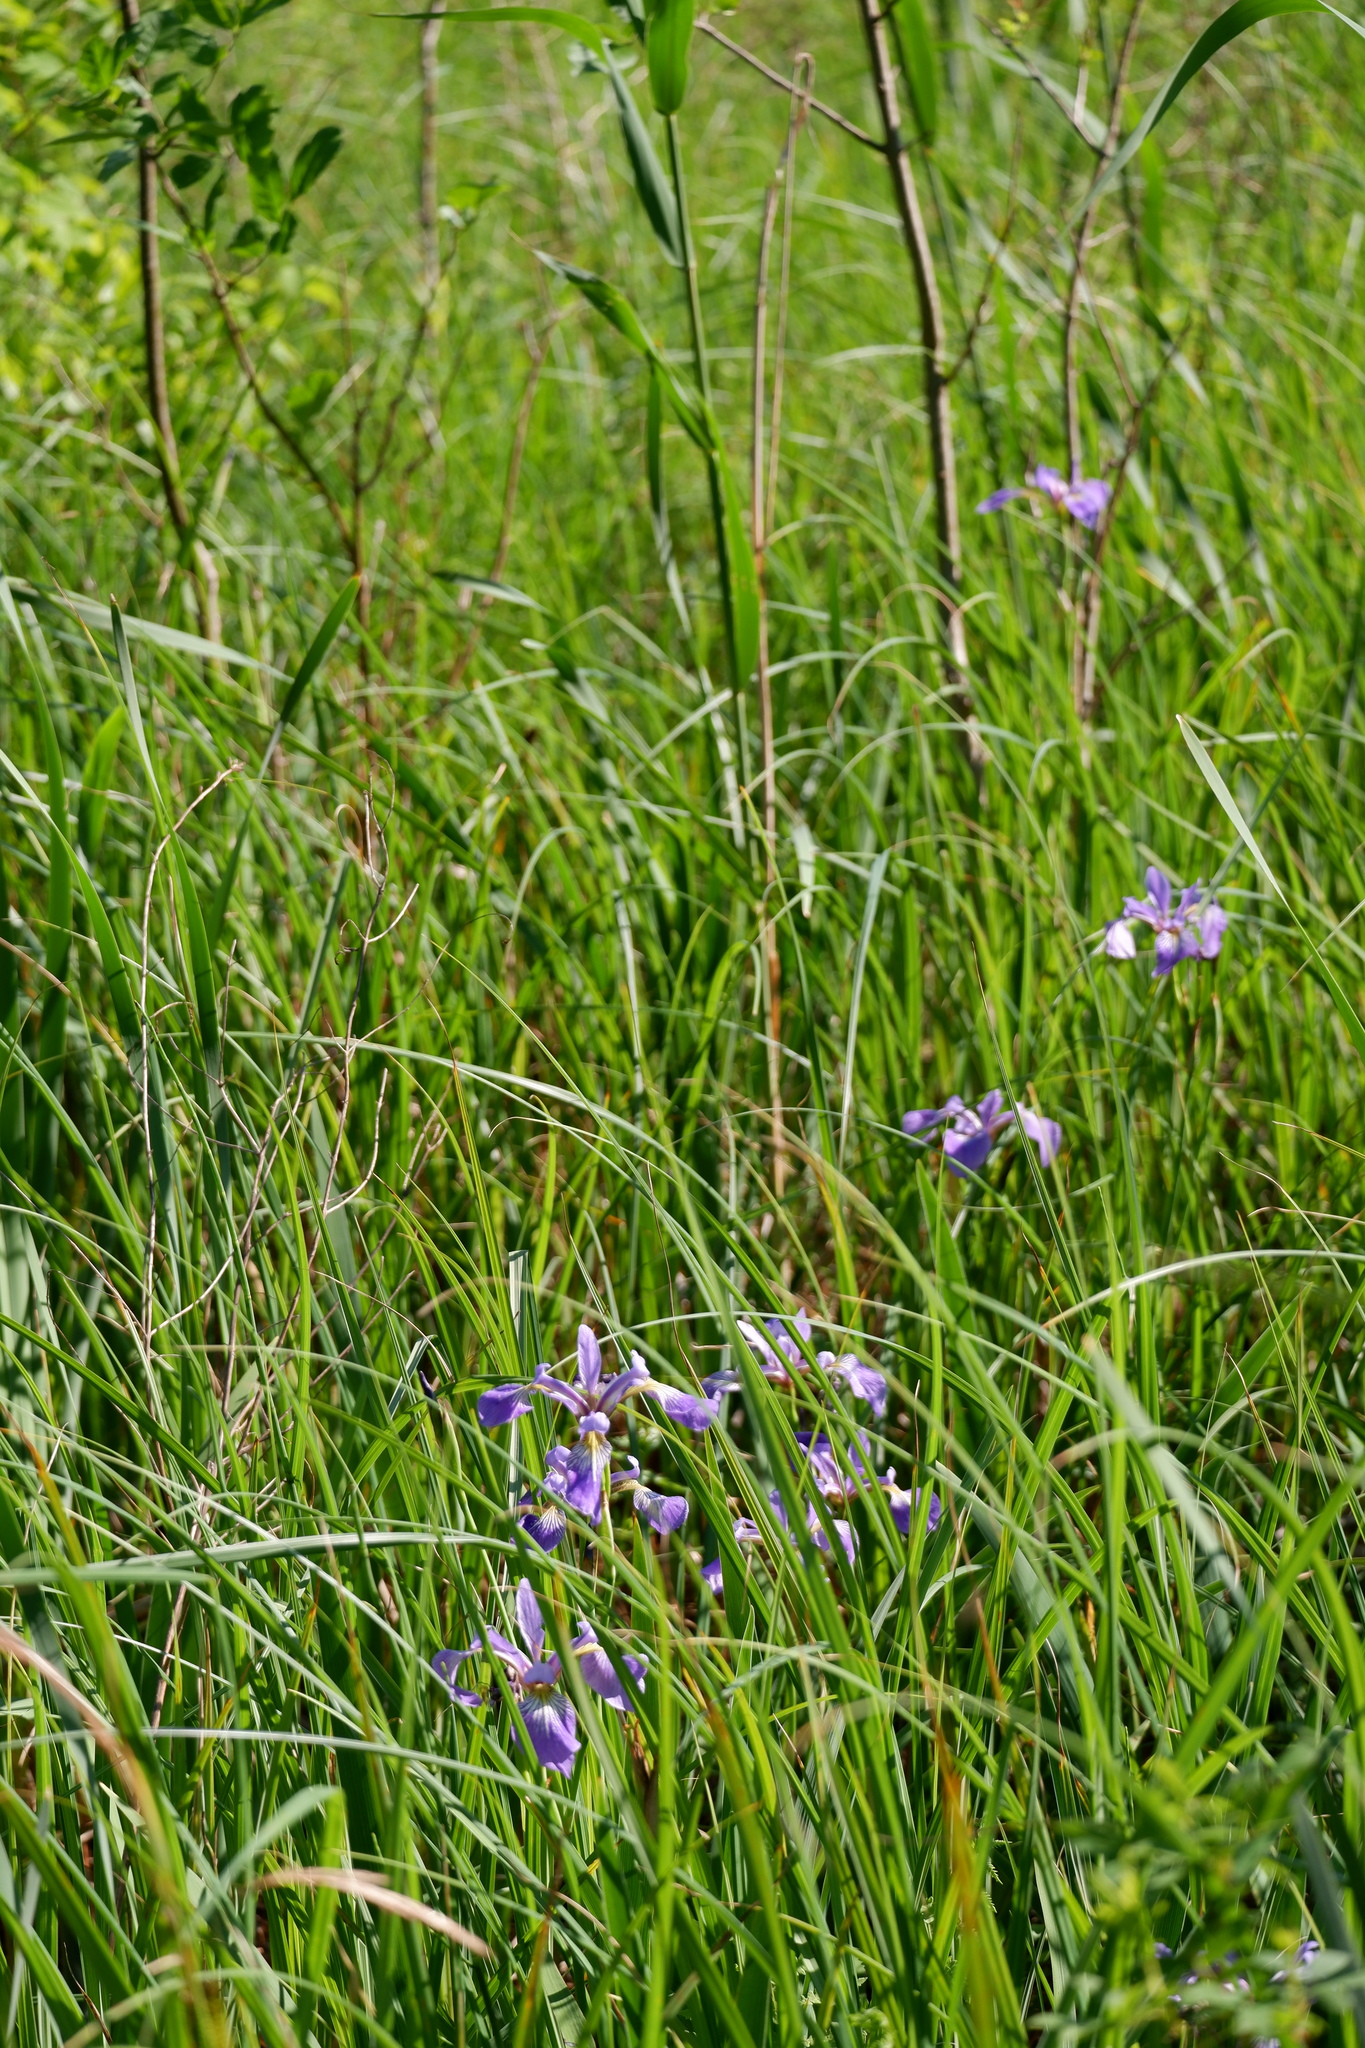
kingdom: Plantae
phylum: Tracheophyta
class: Liliopsida
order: Asparagales
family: Iridaceae
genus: Iris
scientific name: Iris versicolor
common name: Purple iris
